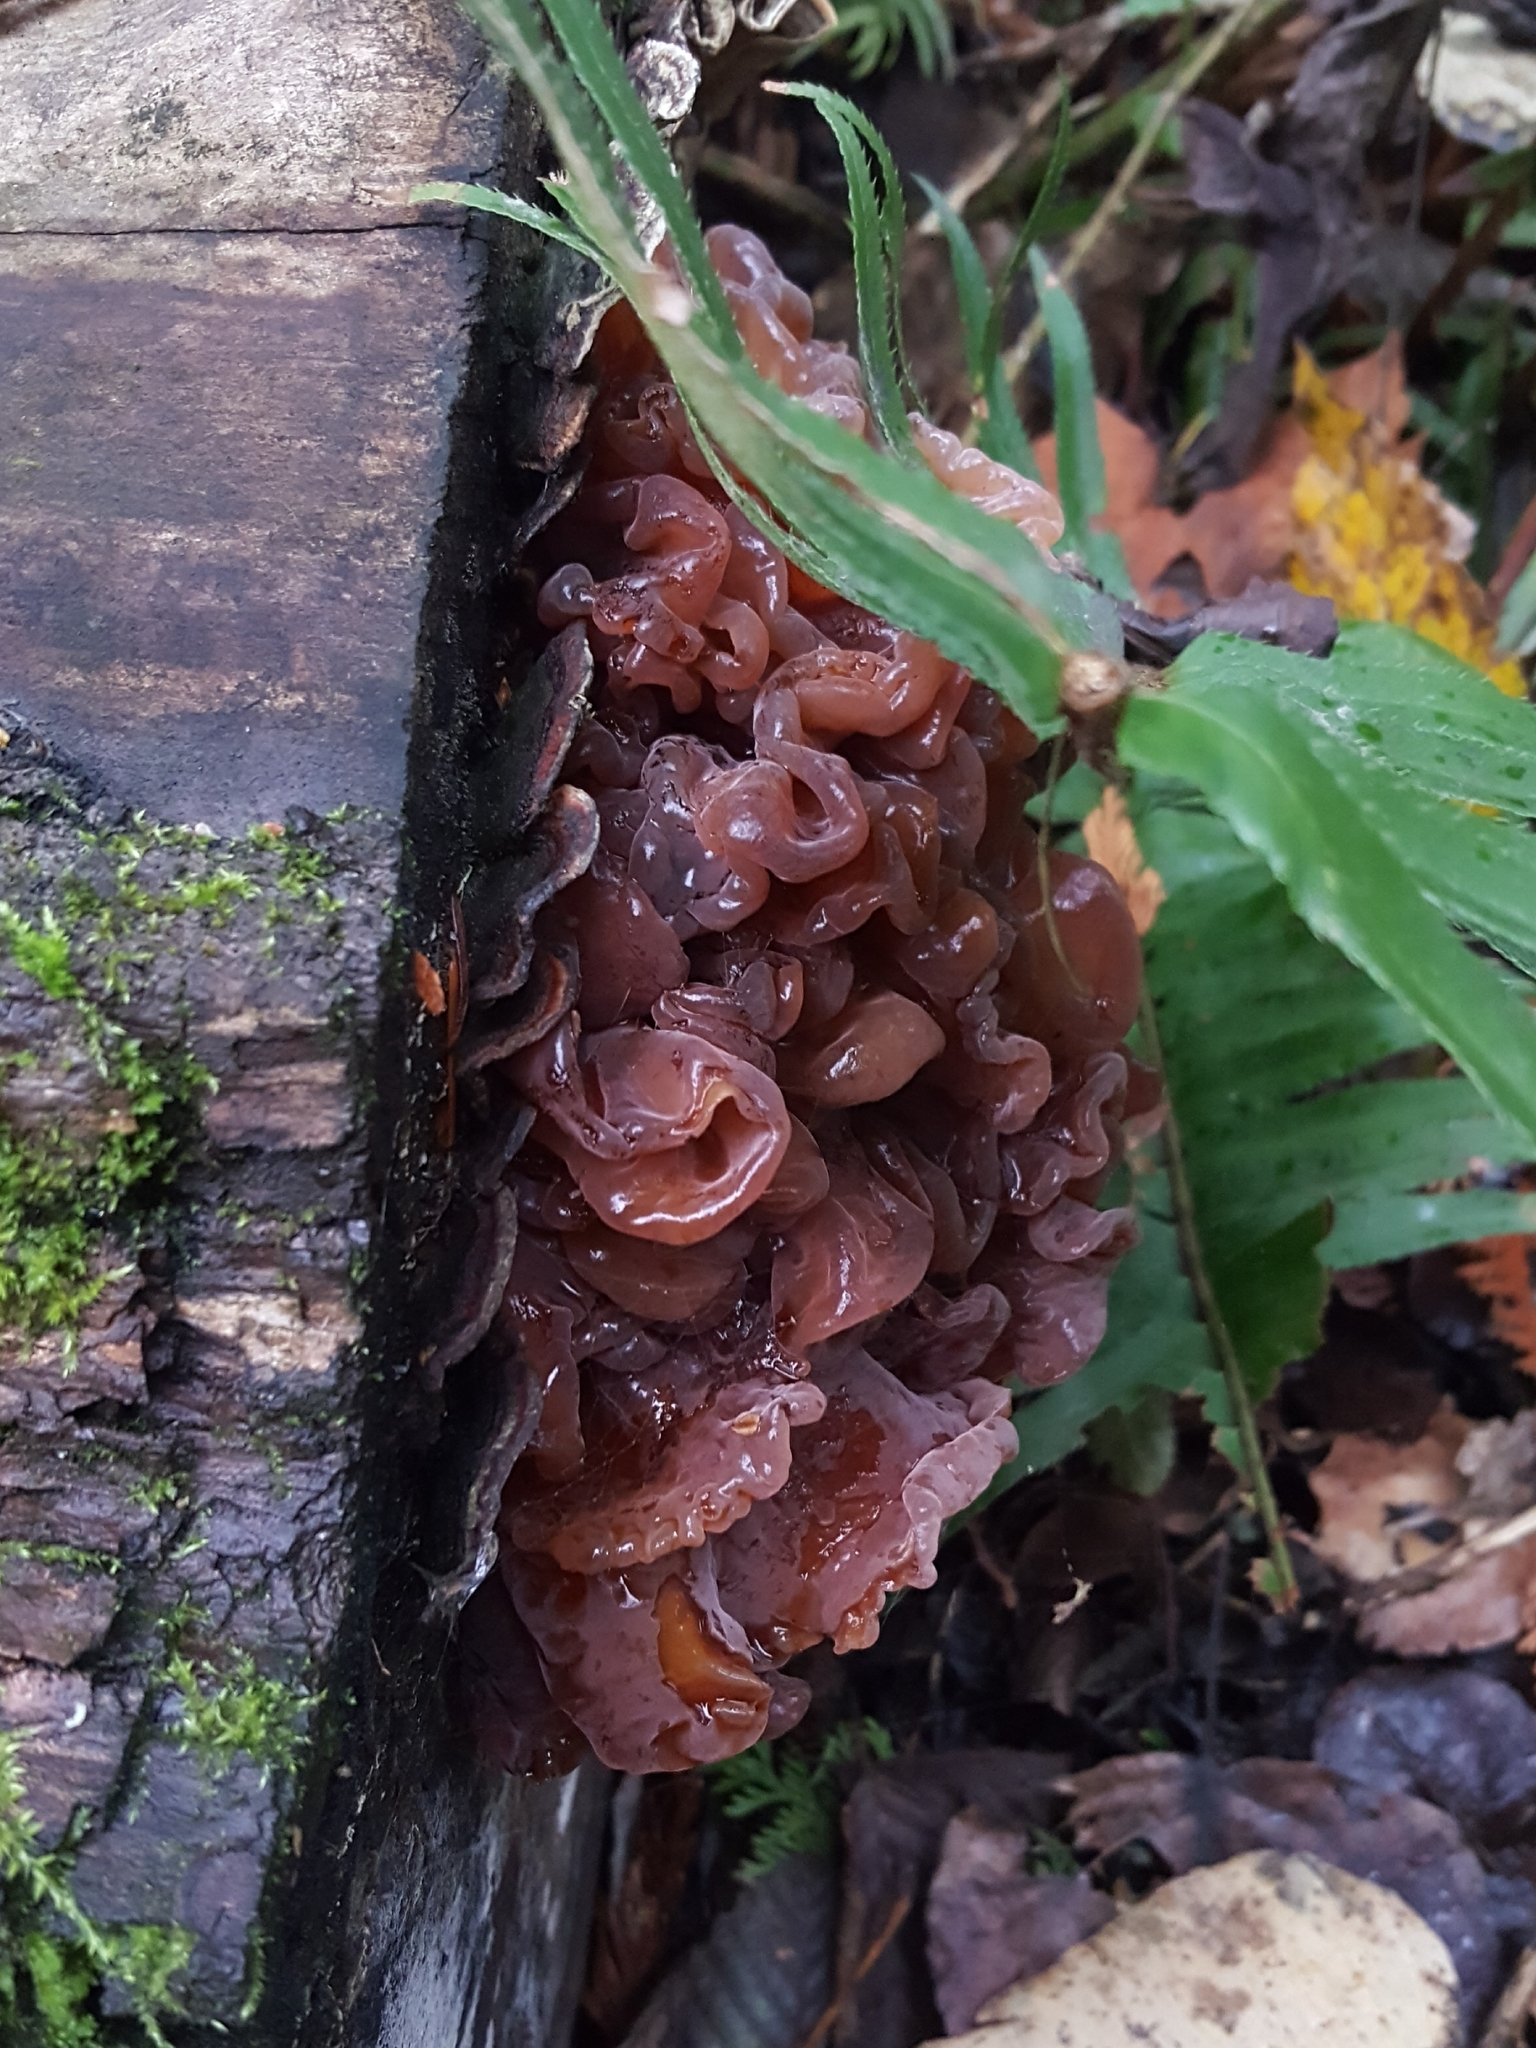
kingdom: Fungi
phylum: Basidiomycota
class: Tremellomycetes
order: Tremellales
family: Tremellaceae
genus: Phaeotremella
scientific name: Phaeotremella foliacea
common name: Leafy brain
